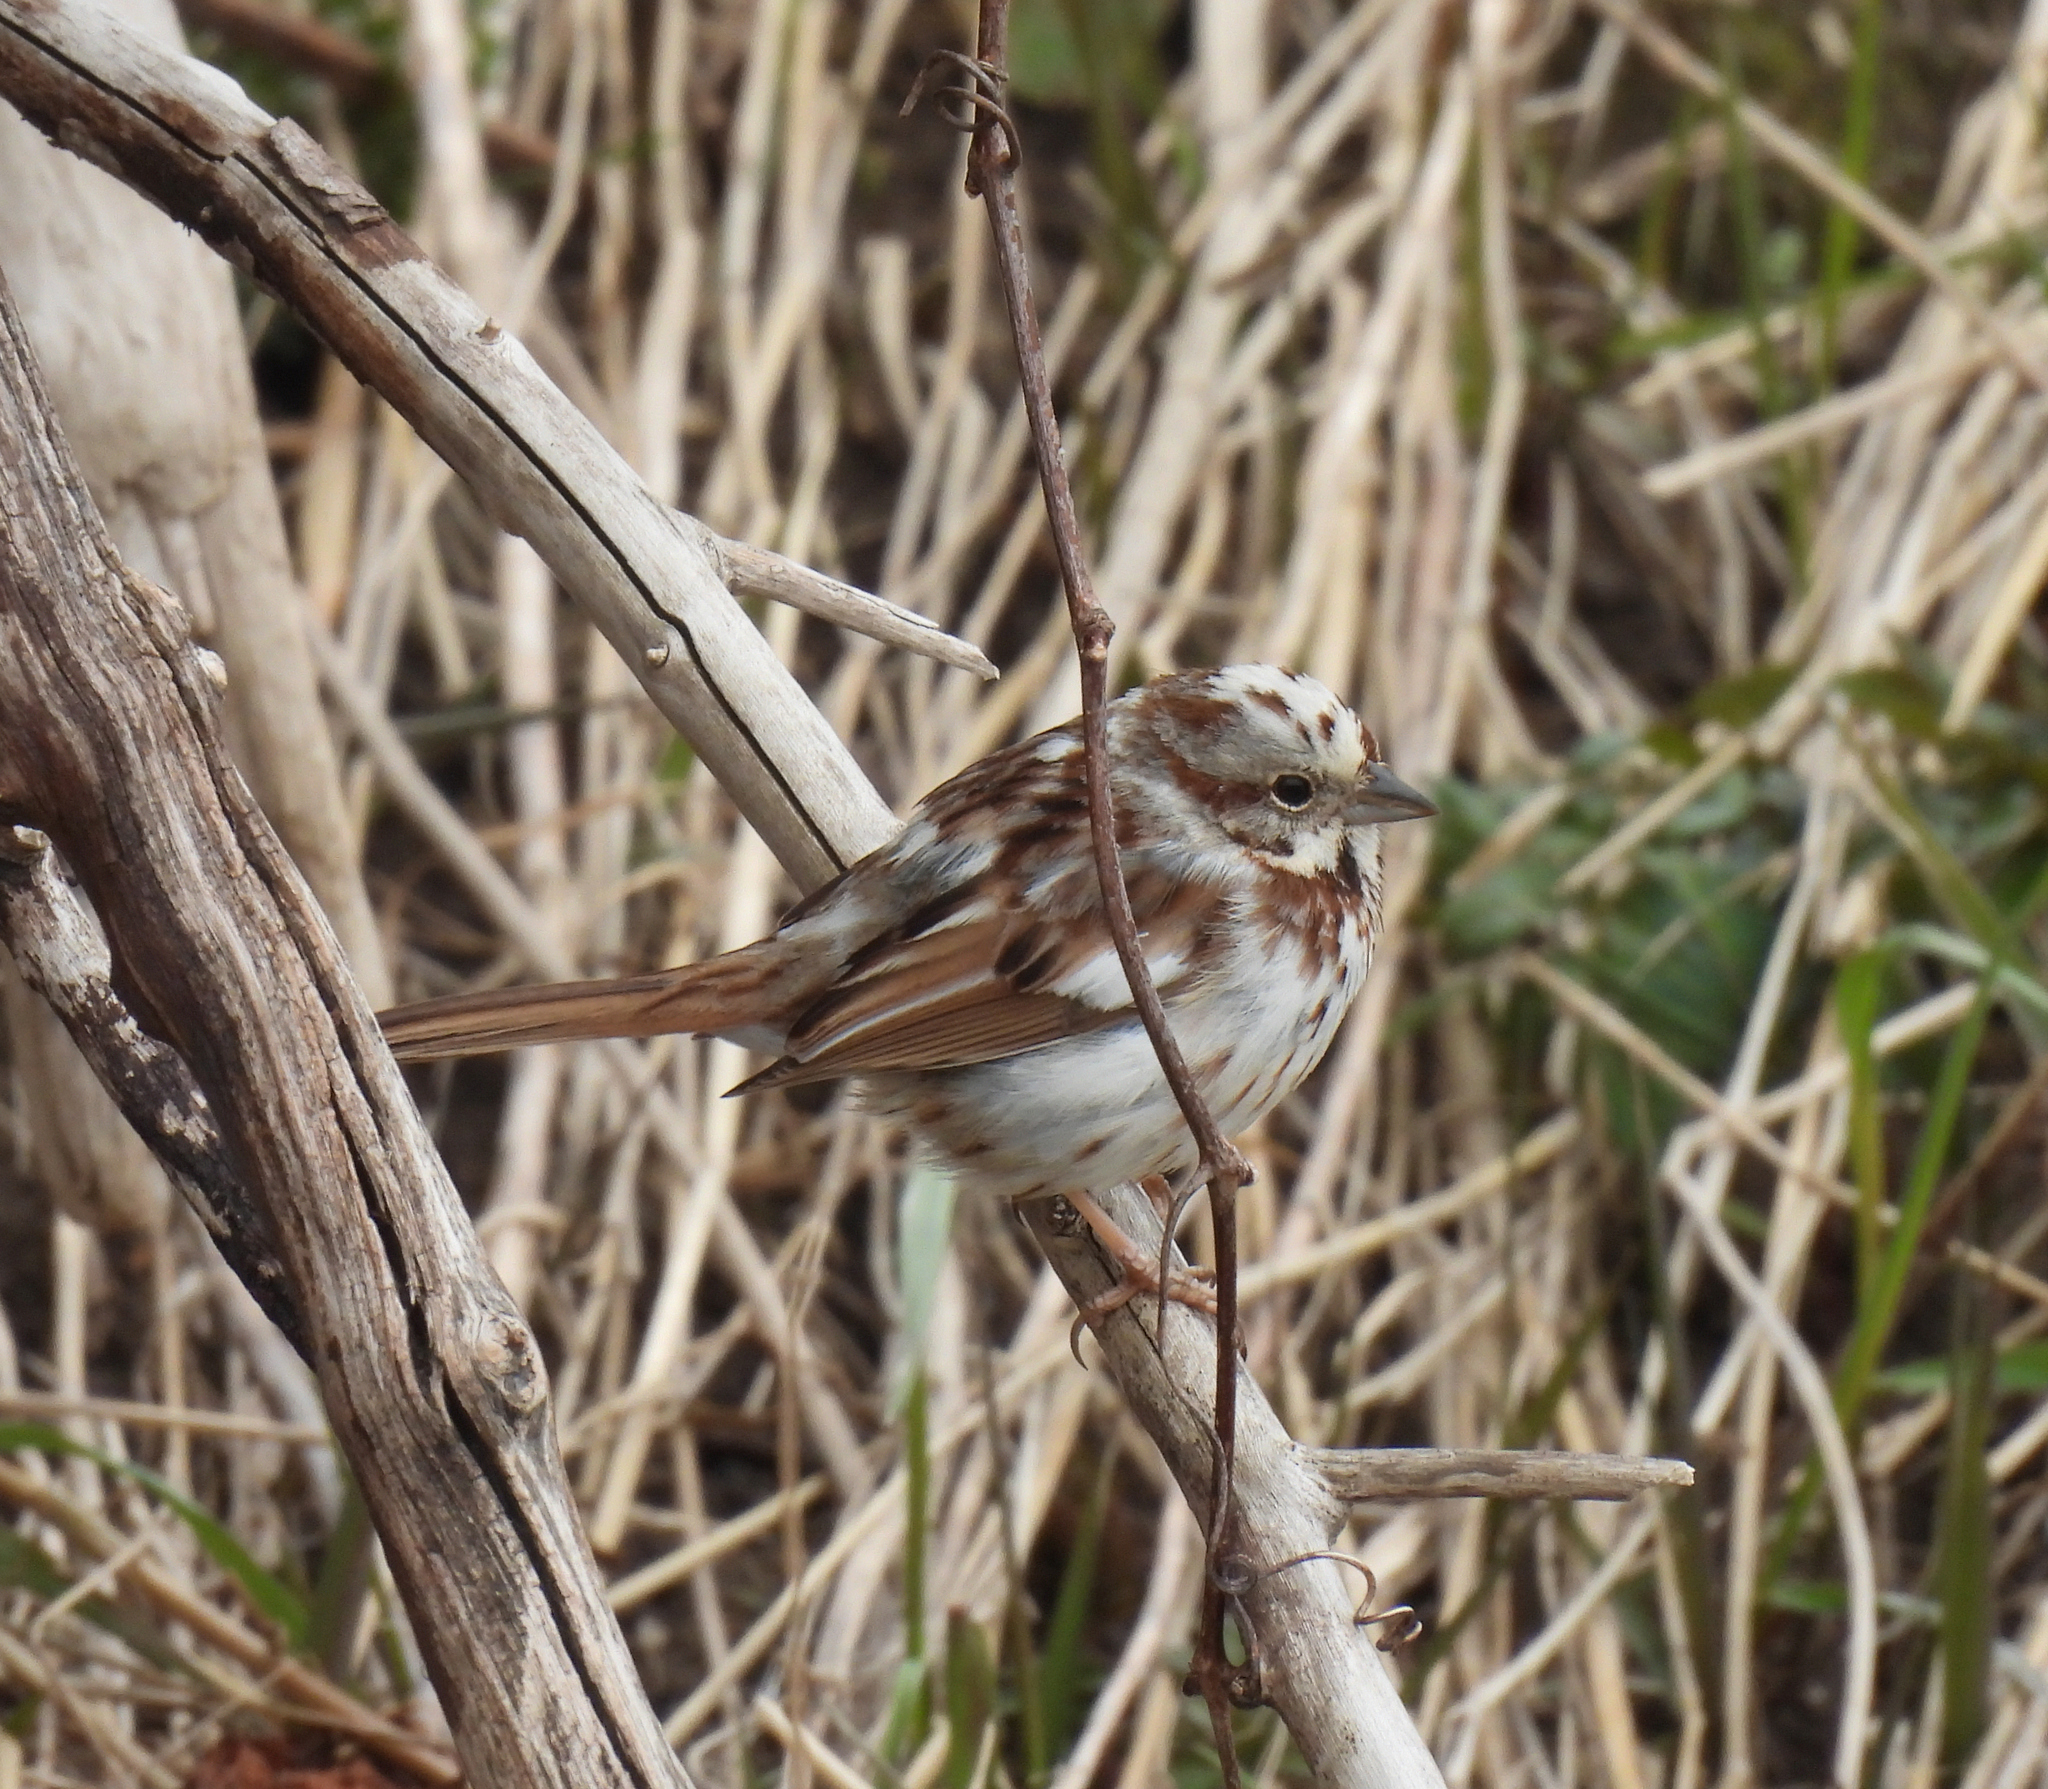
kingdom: Animalia
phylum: Chordata
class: Aves
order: Passeriformes
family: Passerellidae
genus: Melospiza
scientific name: Melospiza melodia
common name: Song sparrow
